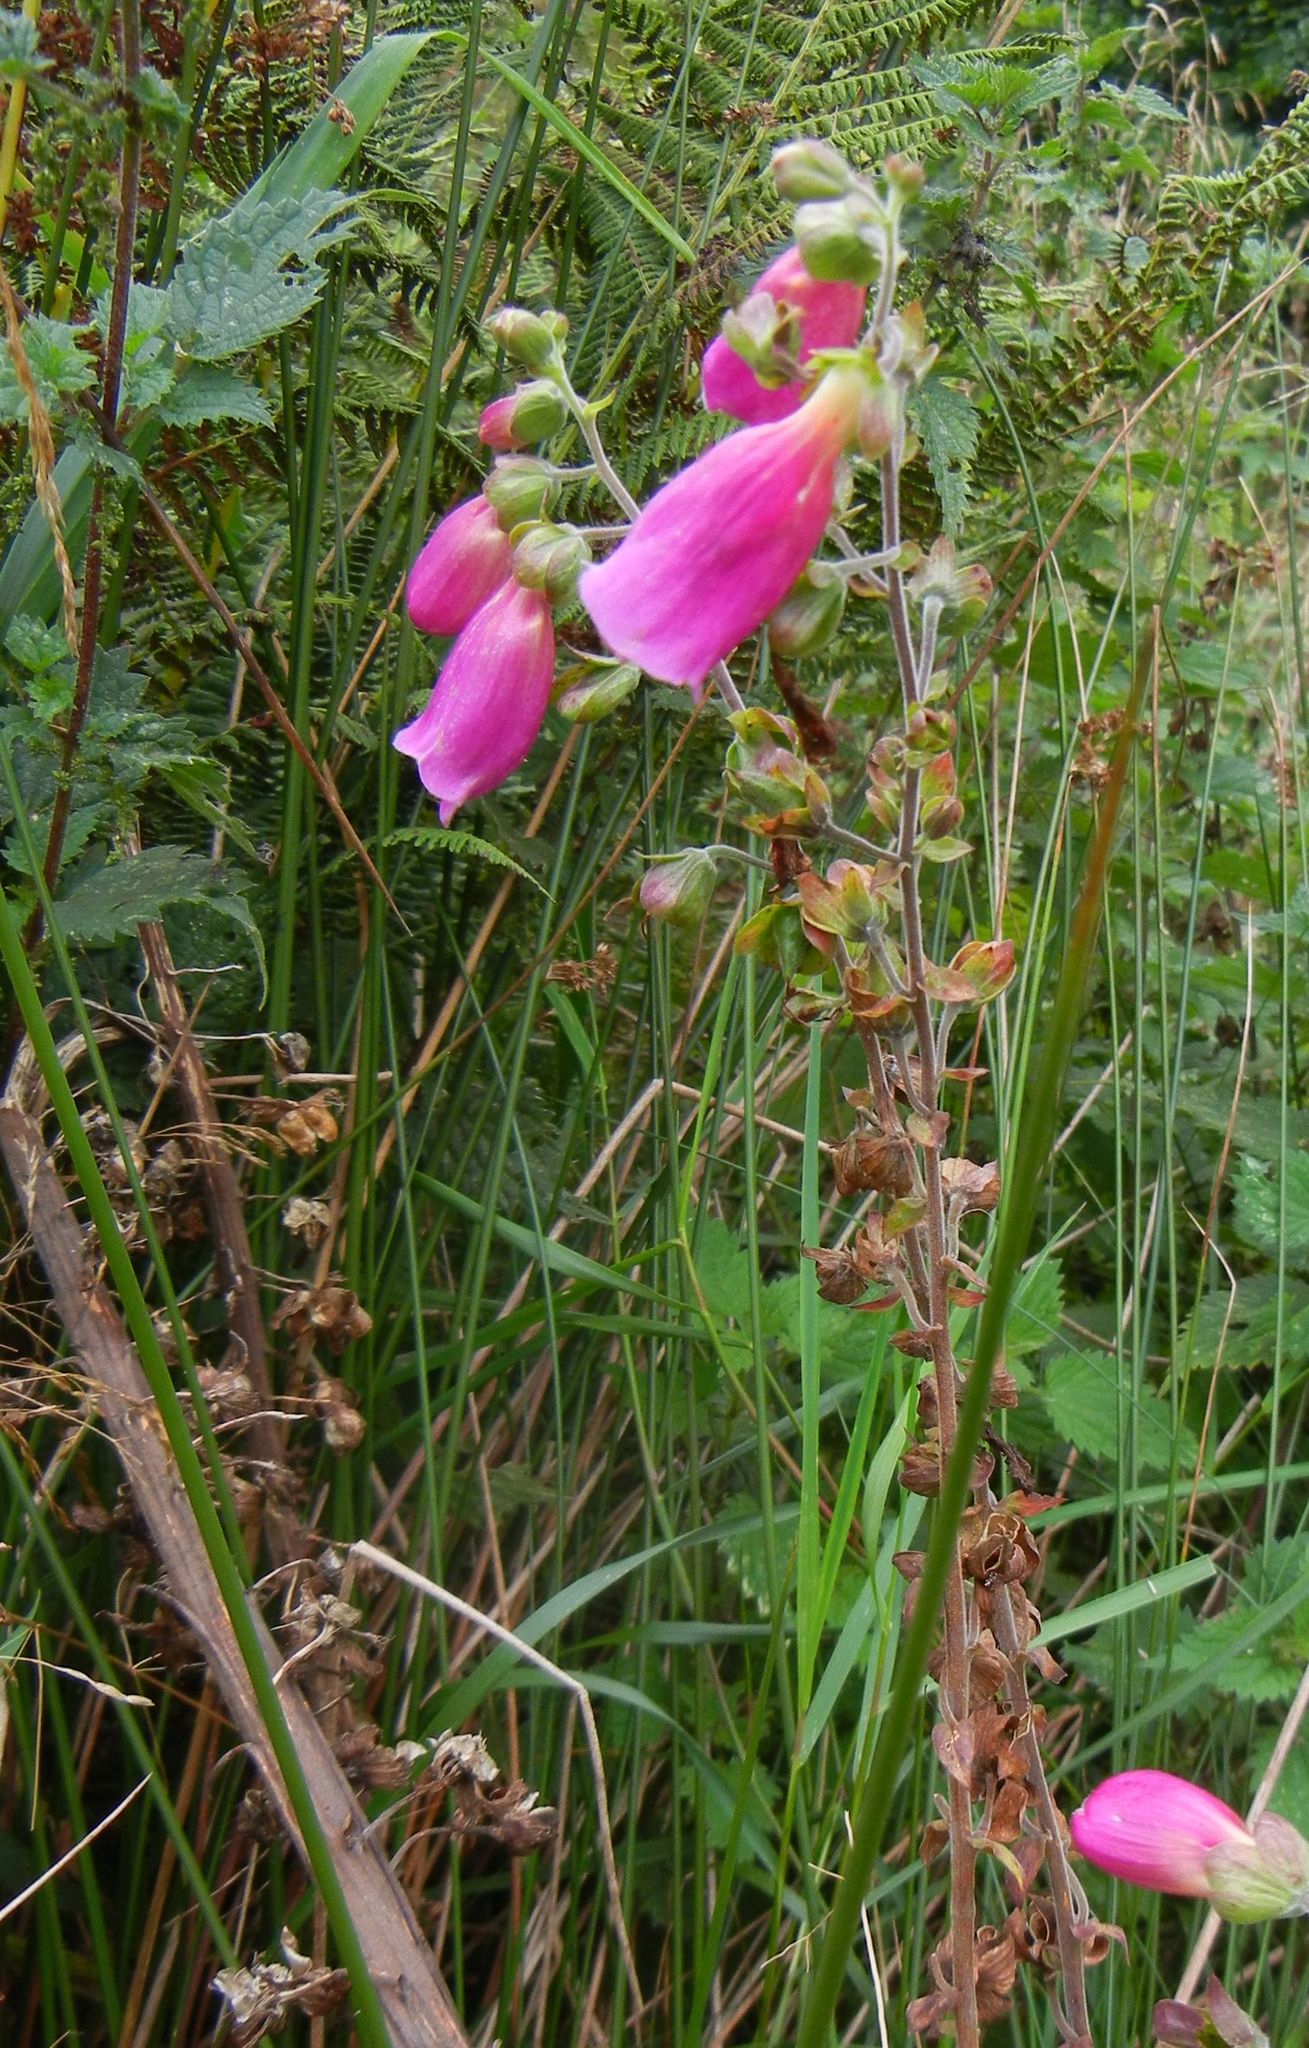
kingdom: Plantae
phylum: Tracheophyta
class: Magnoliopsida
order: Lamiales
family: Plantaginaceae
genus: Digitalis
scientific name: Digitalis purpurea
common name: Foxglove
